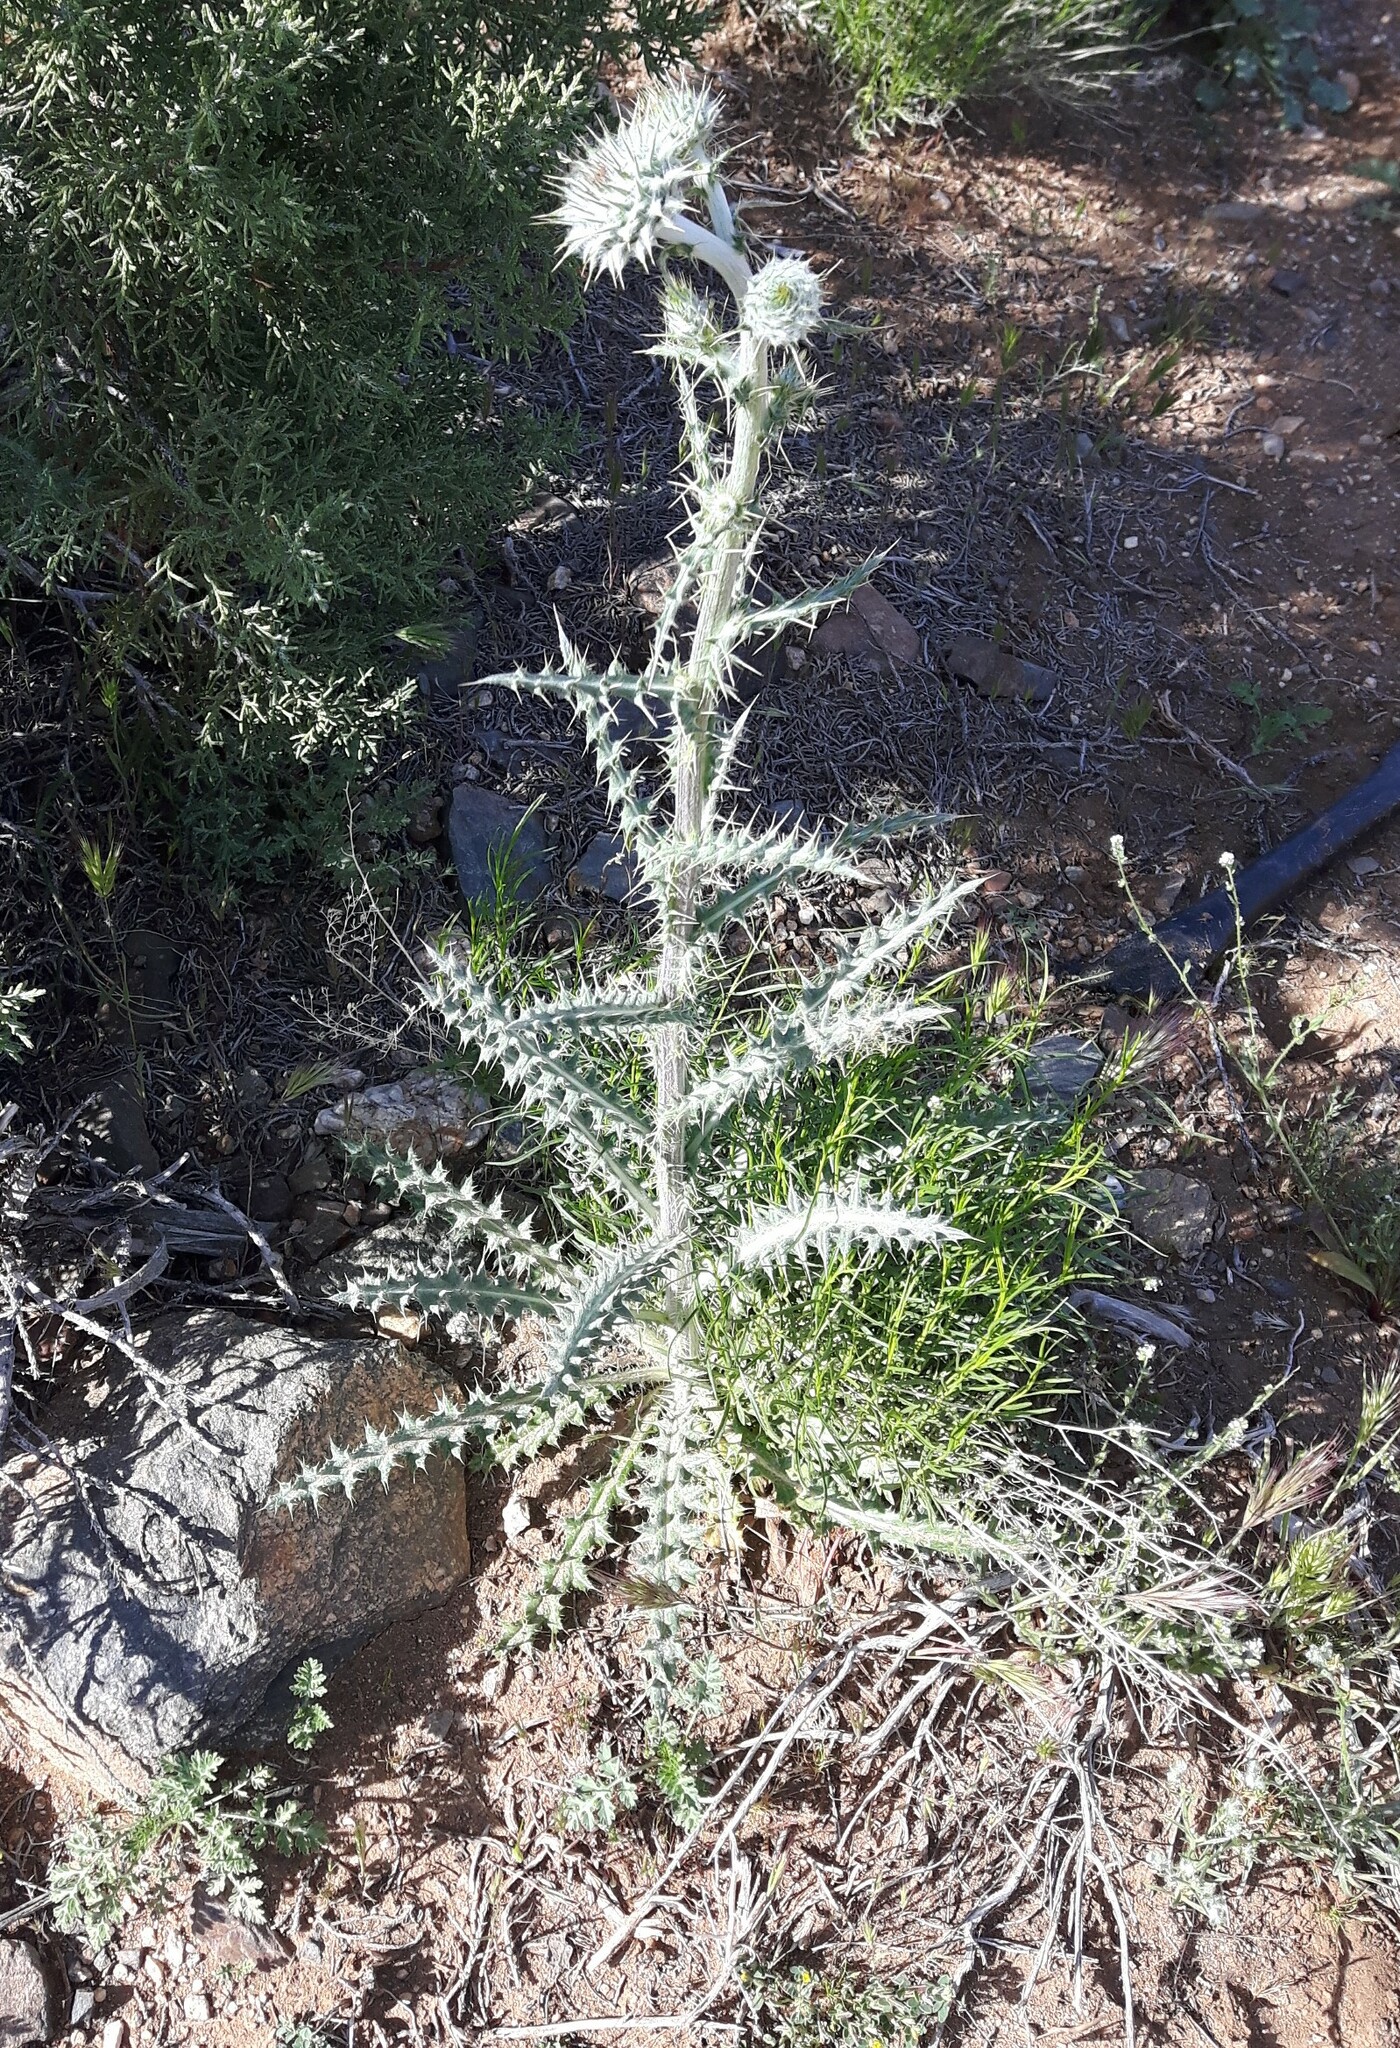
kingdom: Plantae
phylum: Tracheophyta
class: Magnoliopsida
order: Asterales
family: Asteraceae
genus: Cirsium
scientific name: Cirsium neomexicanum
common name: New mexico thistle
